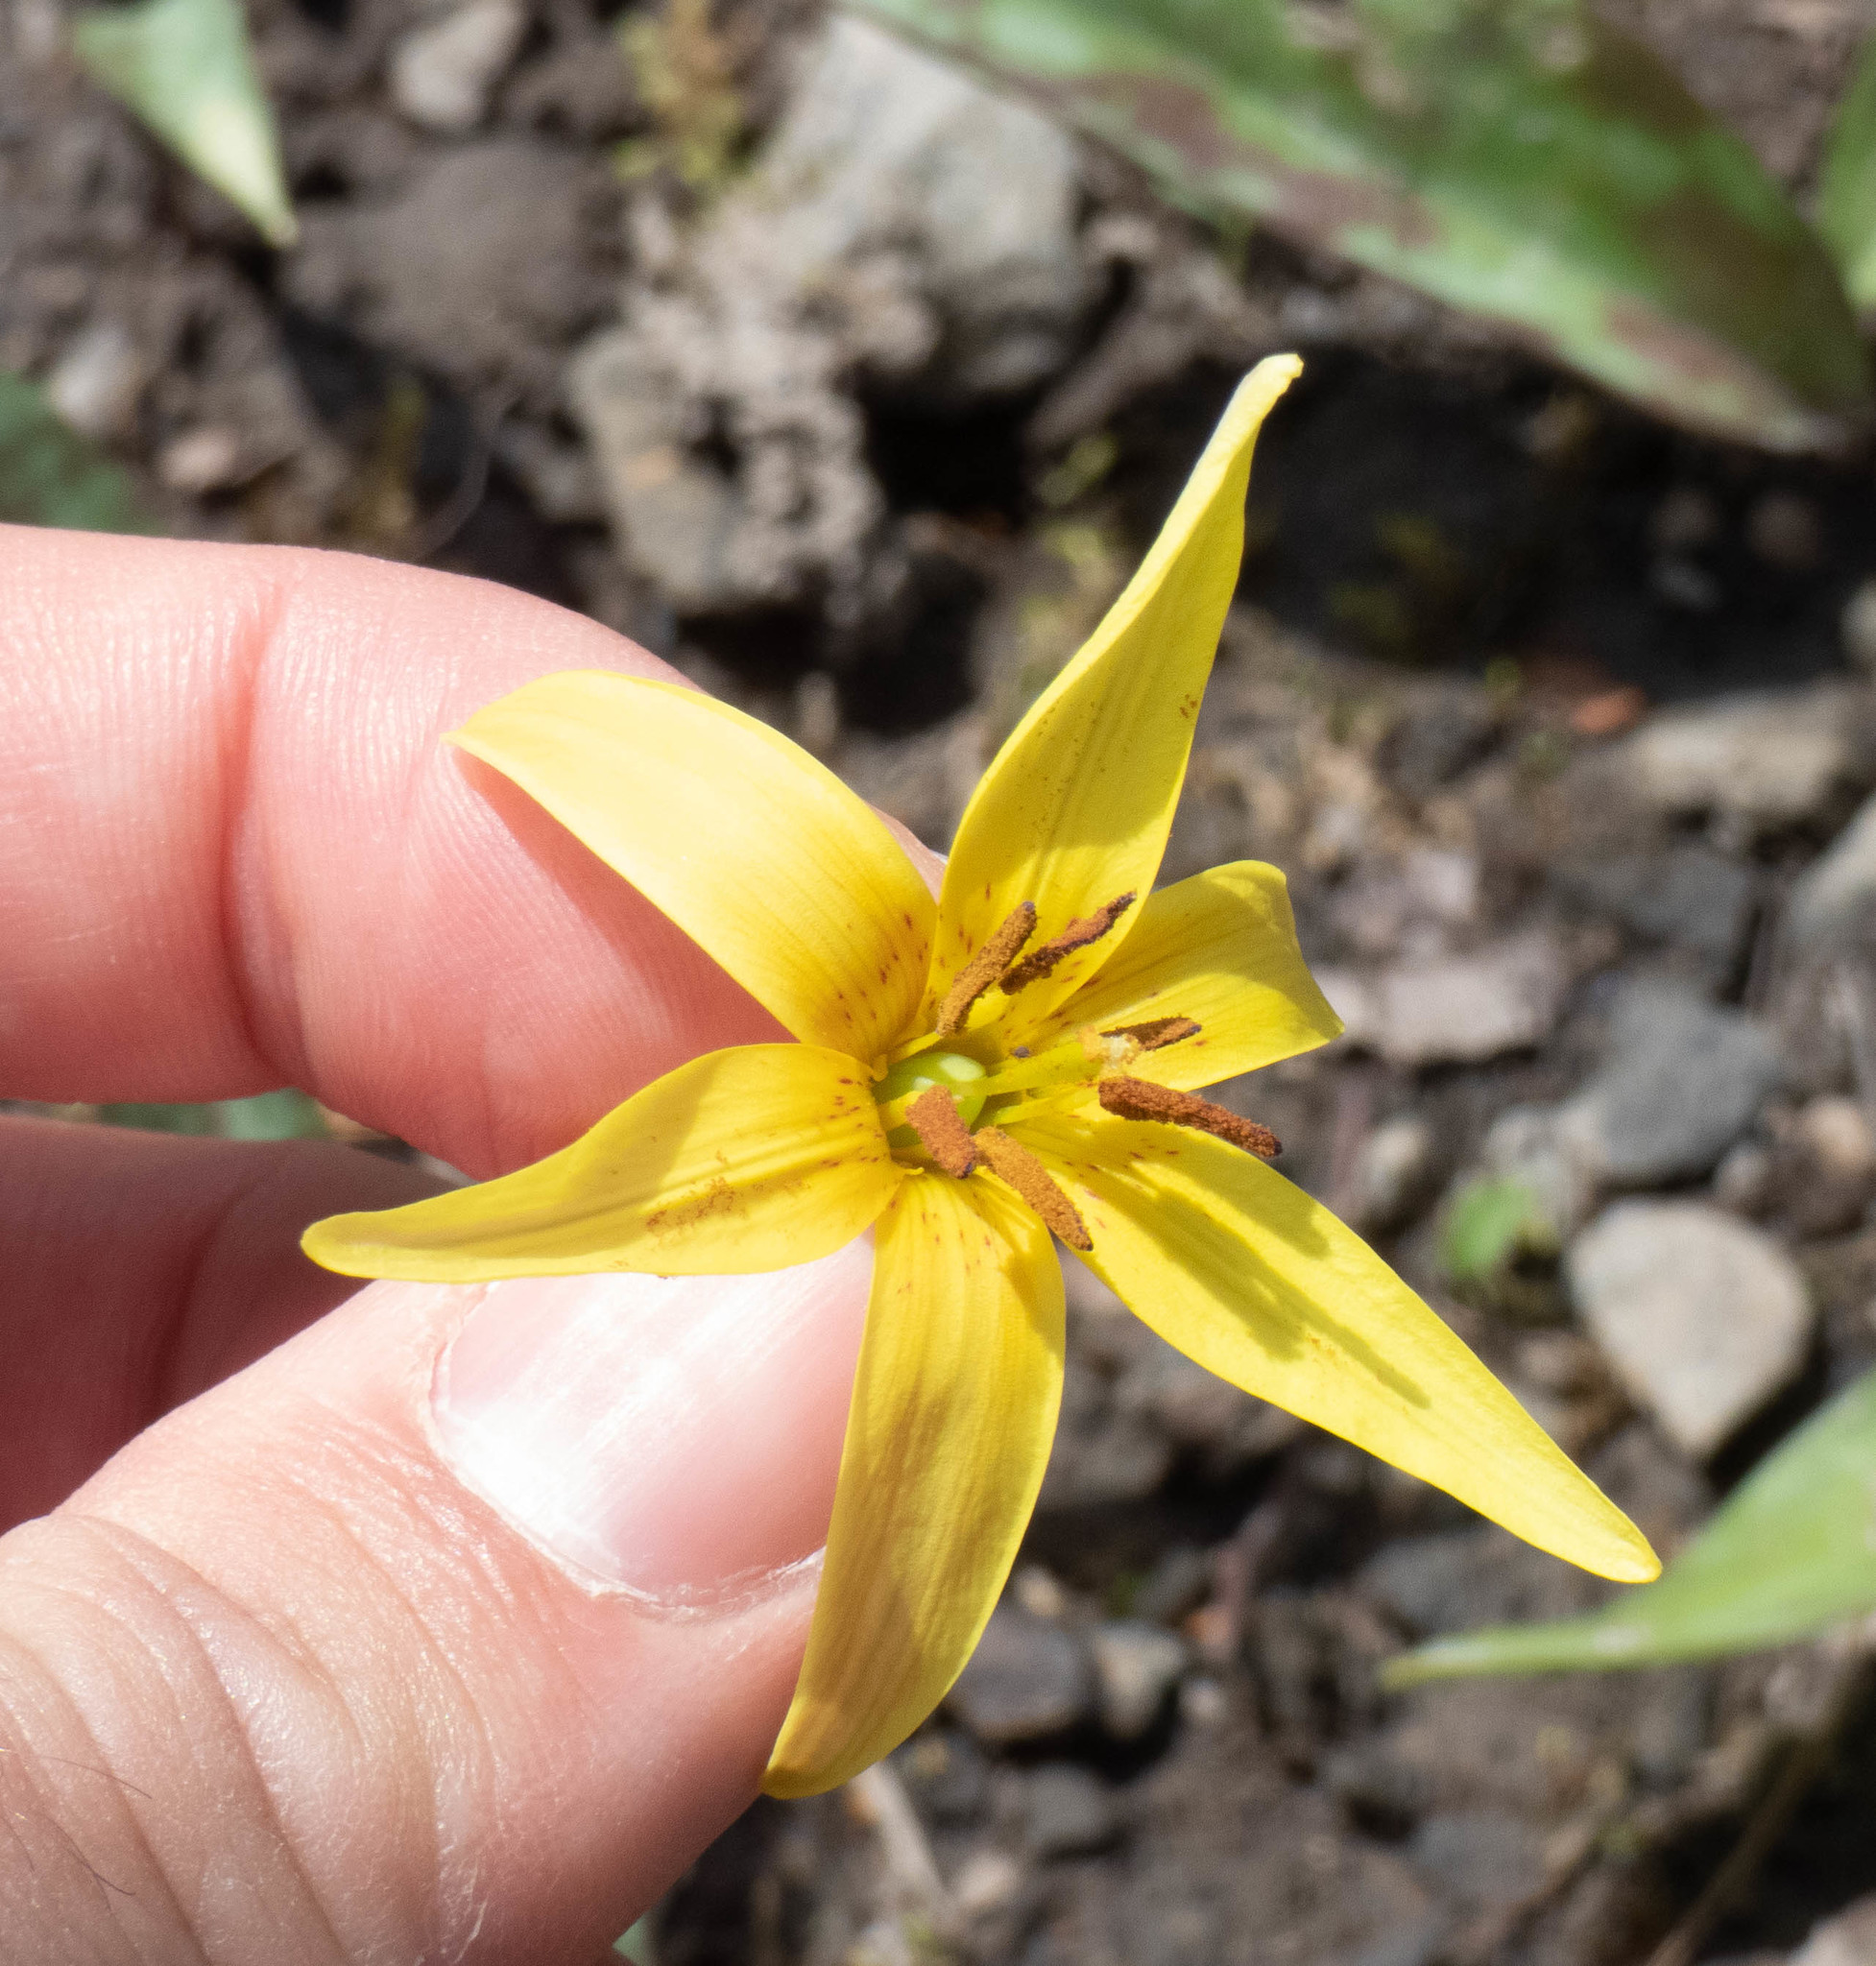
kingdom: Plantae
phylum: Tracheophyta
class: Liliopsida
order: Liliales
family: Liliaceae
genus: Erythronium
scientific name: Erythronium americanum
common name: Yellow adder's-tongue
